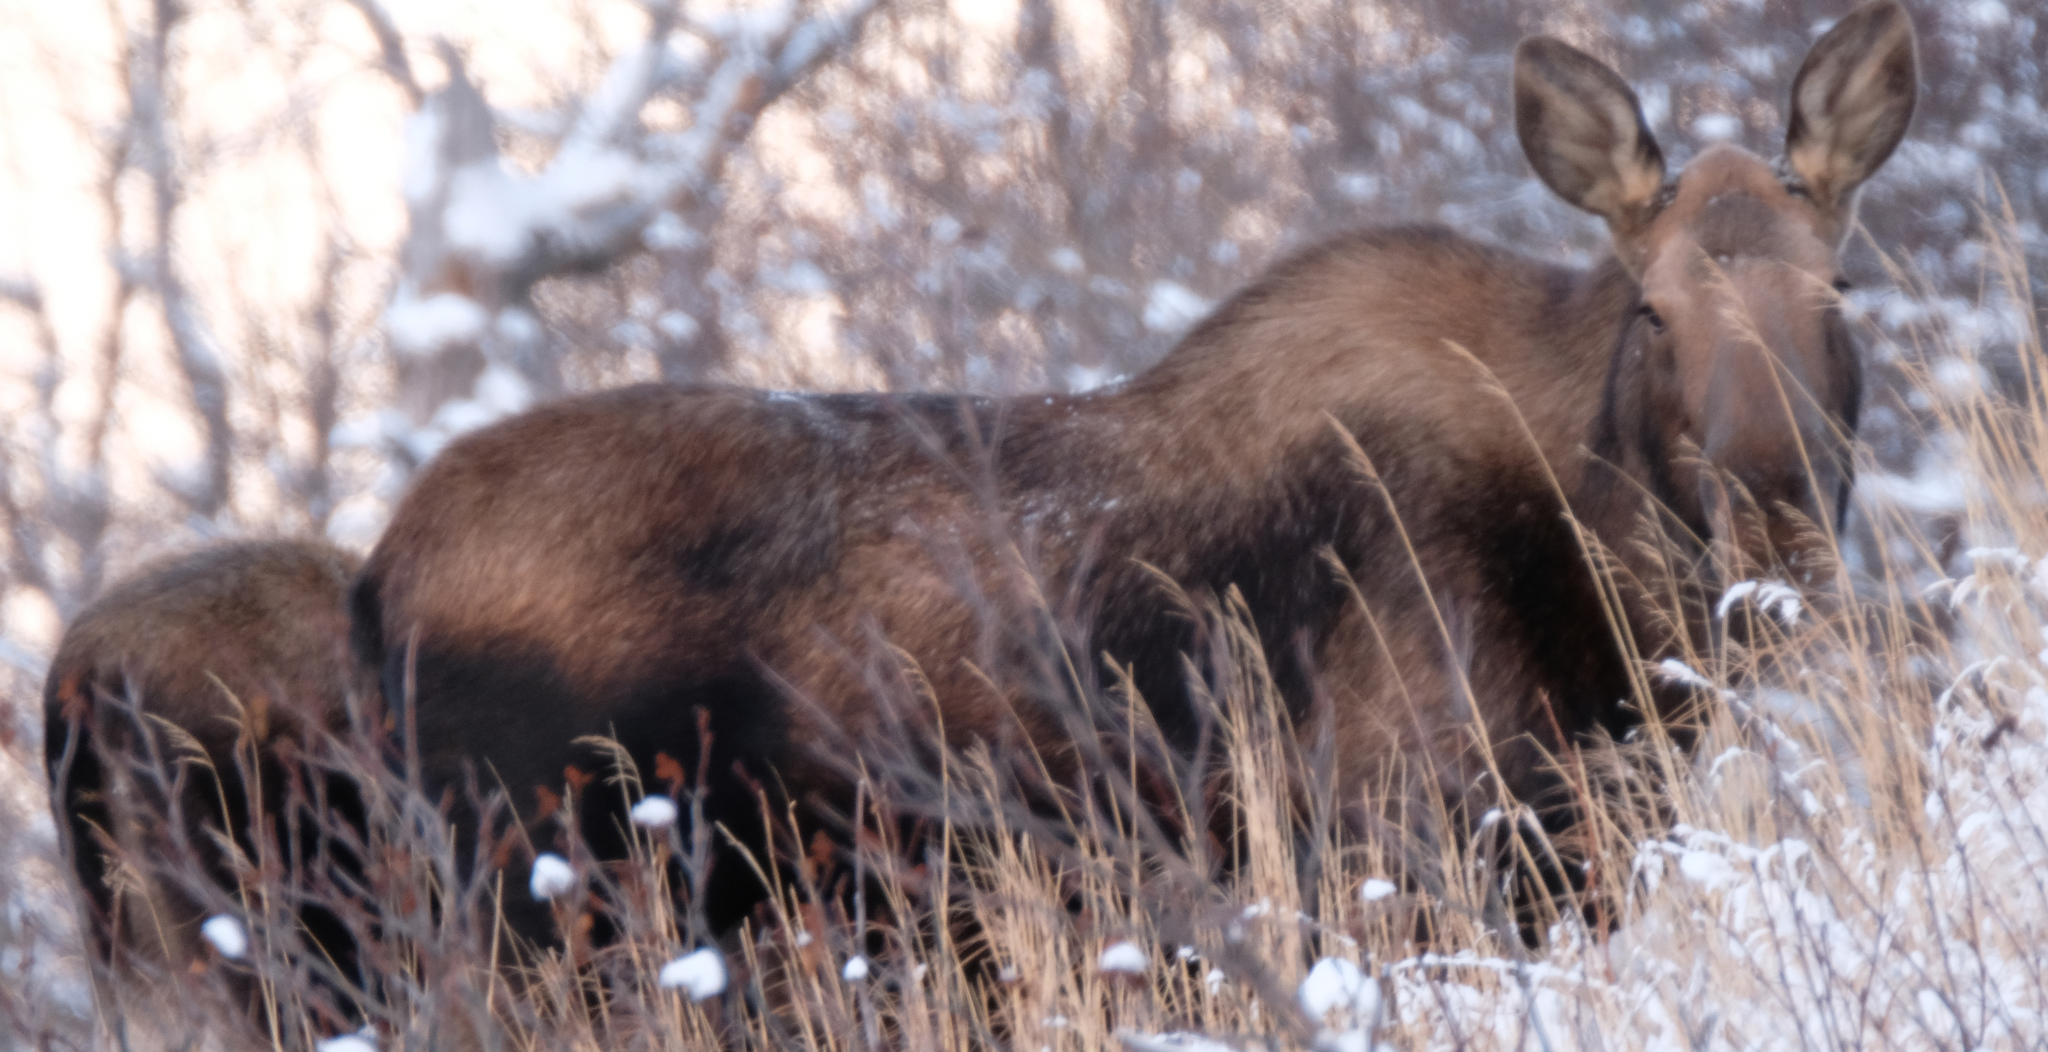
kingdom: Animalia
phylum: Chordata
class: Mammalia
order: Artiodactyla
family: Cervidae
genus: Alces
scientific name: Alces alces
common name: Moose
